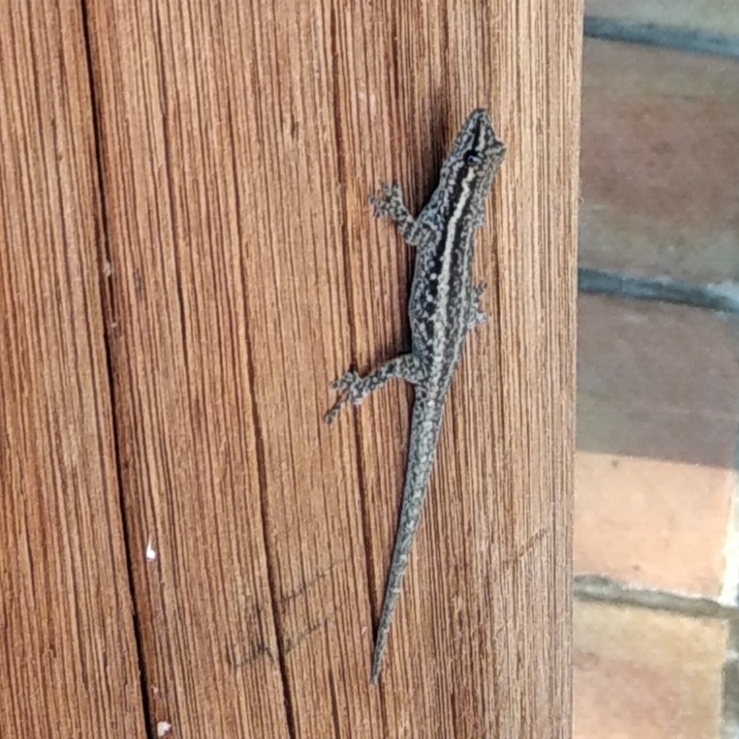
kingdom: Animalia
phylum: Chordata
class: Squamata
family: Gekkonidae
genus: Lygodactylus
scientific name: Lygodactylus capensis
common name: Cape dwarf gecko
